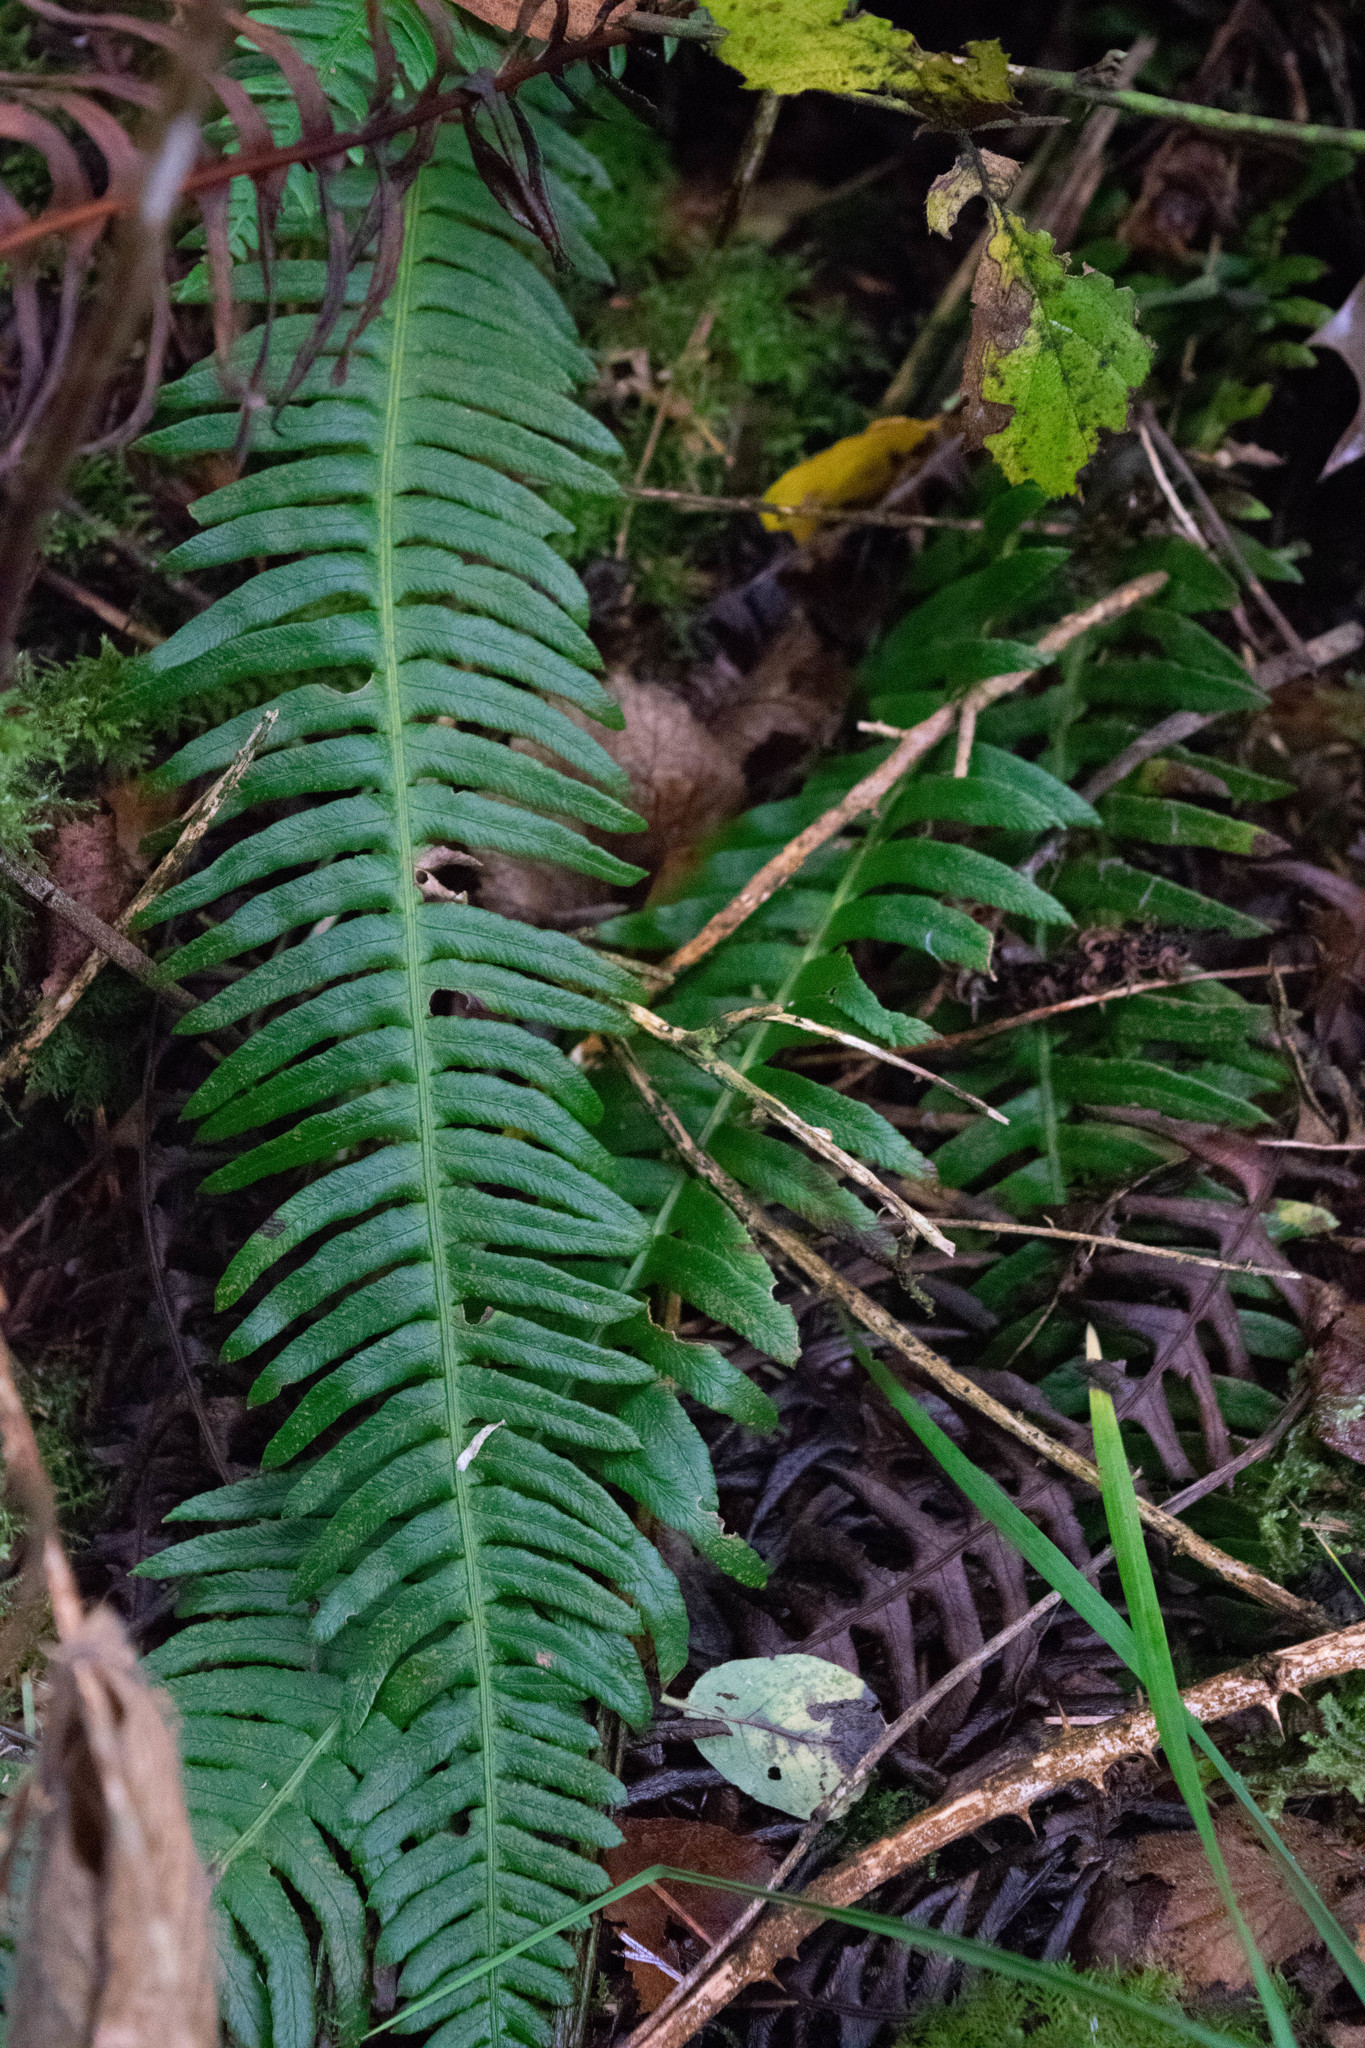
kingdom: Plantae
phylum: Tracheophyta
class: Polypodiopsida
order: Polypodiales
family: Blechnaceae
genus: Struthiopteris
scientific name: Struthiopteris spicant
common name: Deer fern
